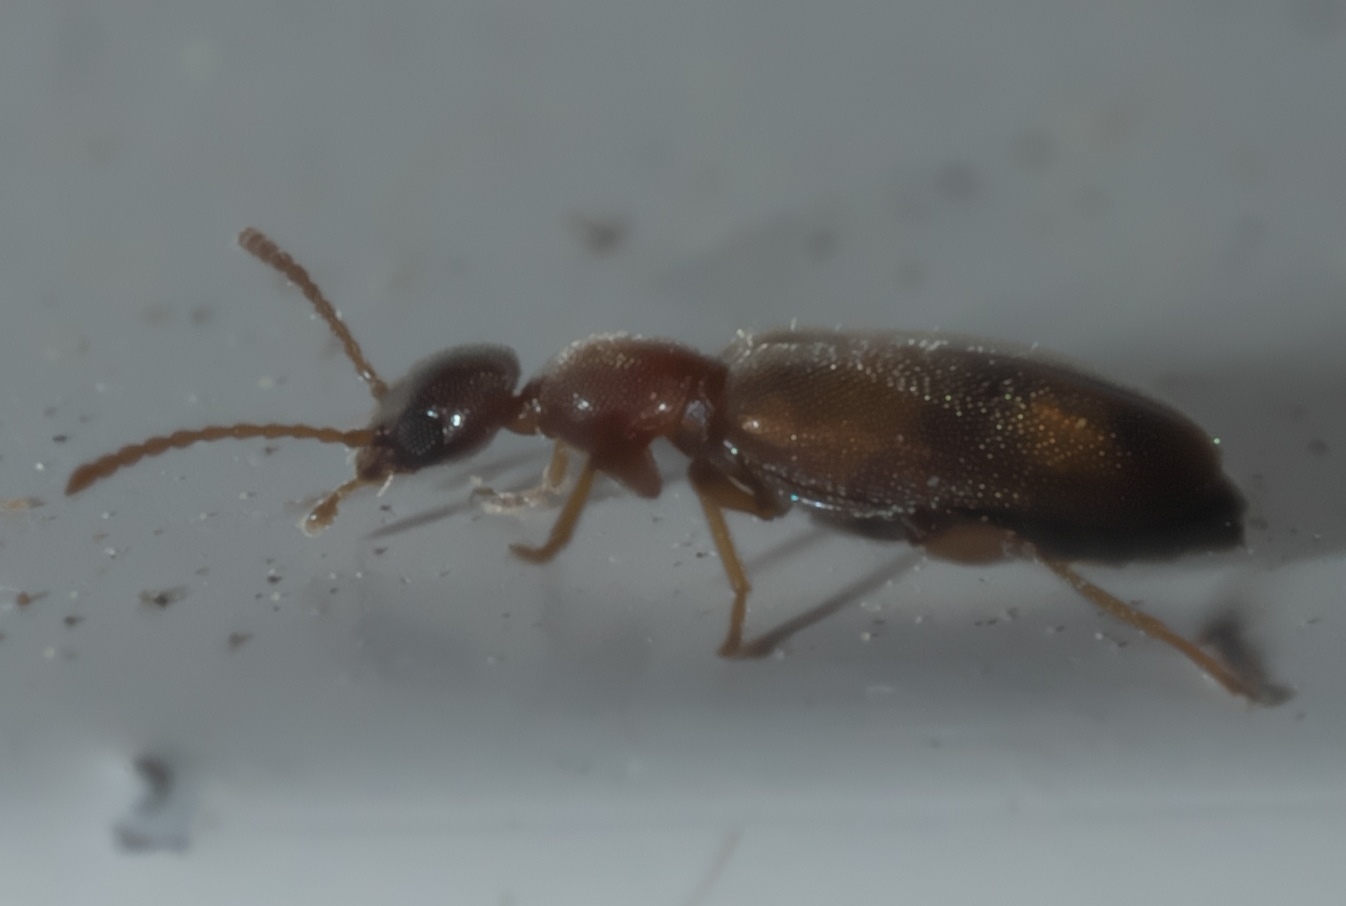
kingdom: Animalia
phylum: Arthropoda
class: Insecta
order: Coleoptera
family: Anthicidae
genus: Anthicus
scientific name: Anthicus cervinus
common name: Cloudy flower beetle
